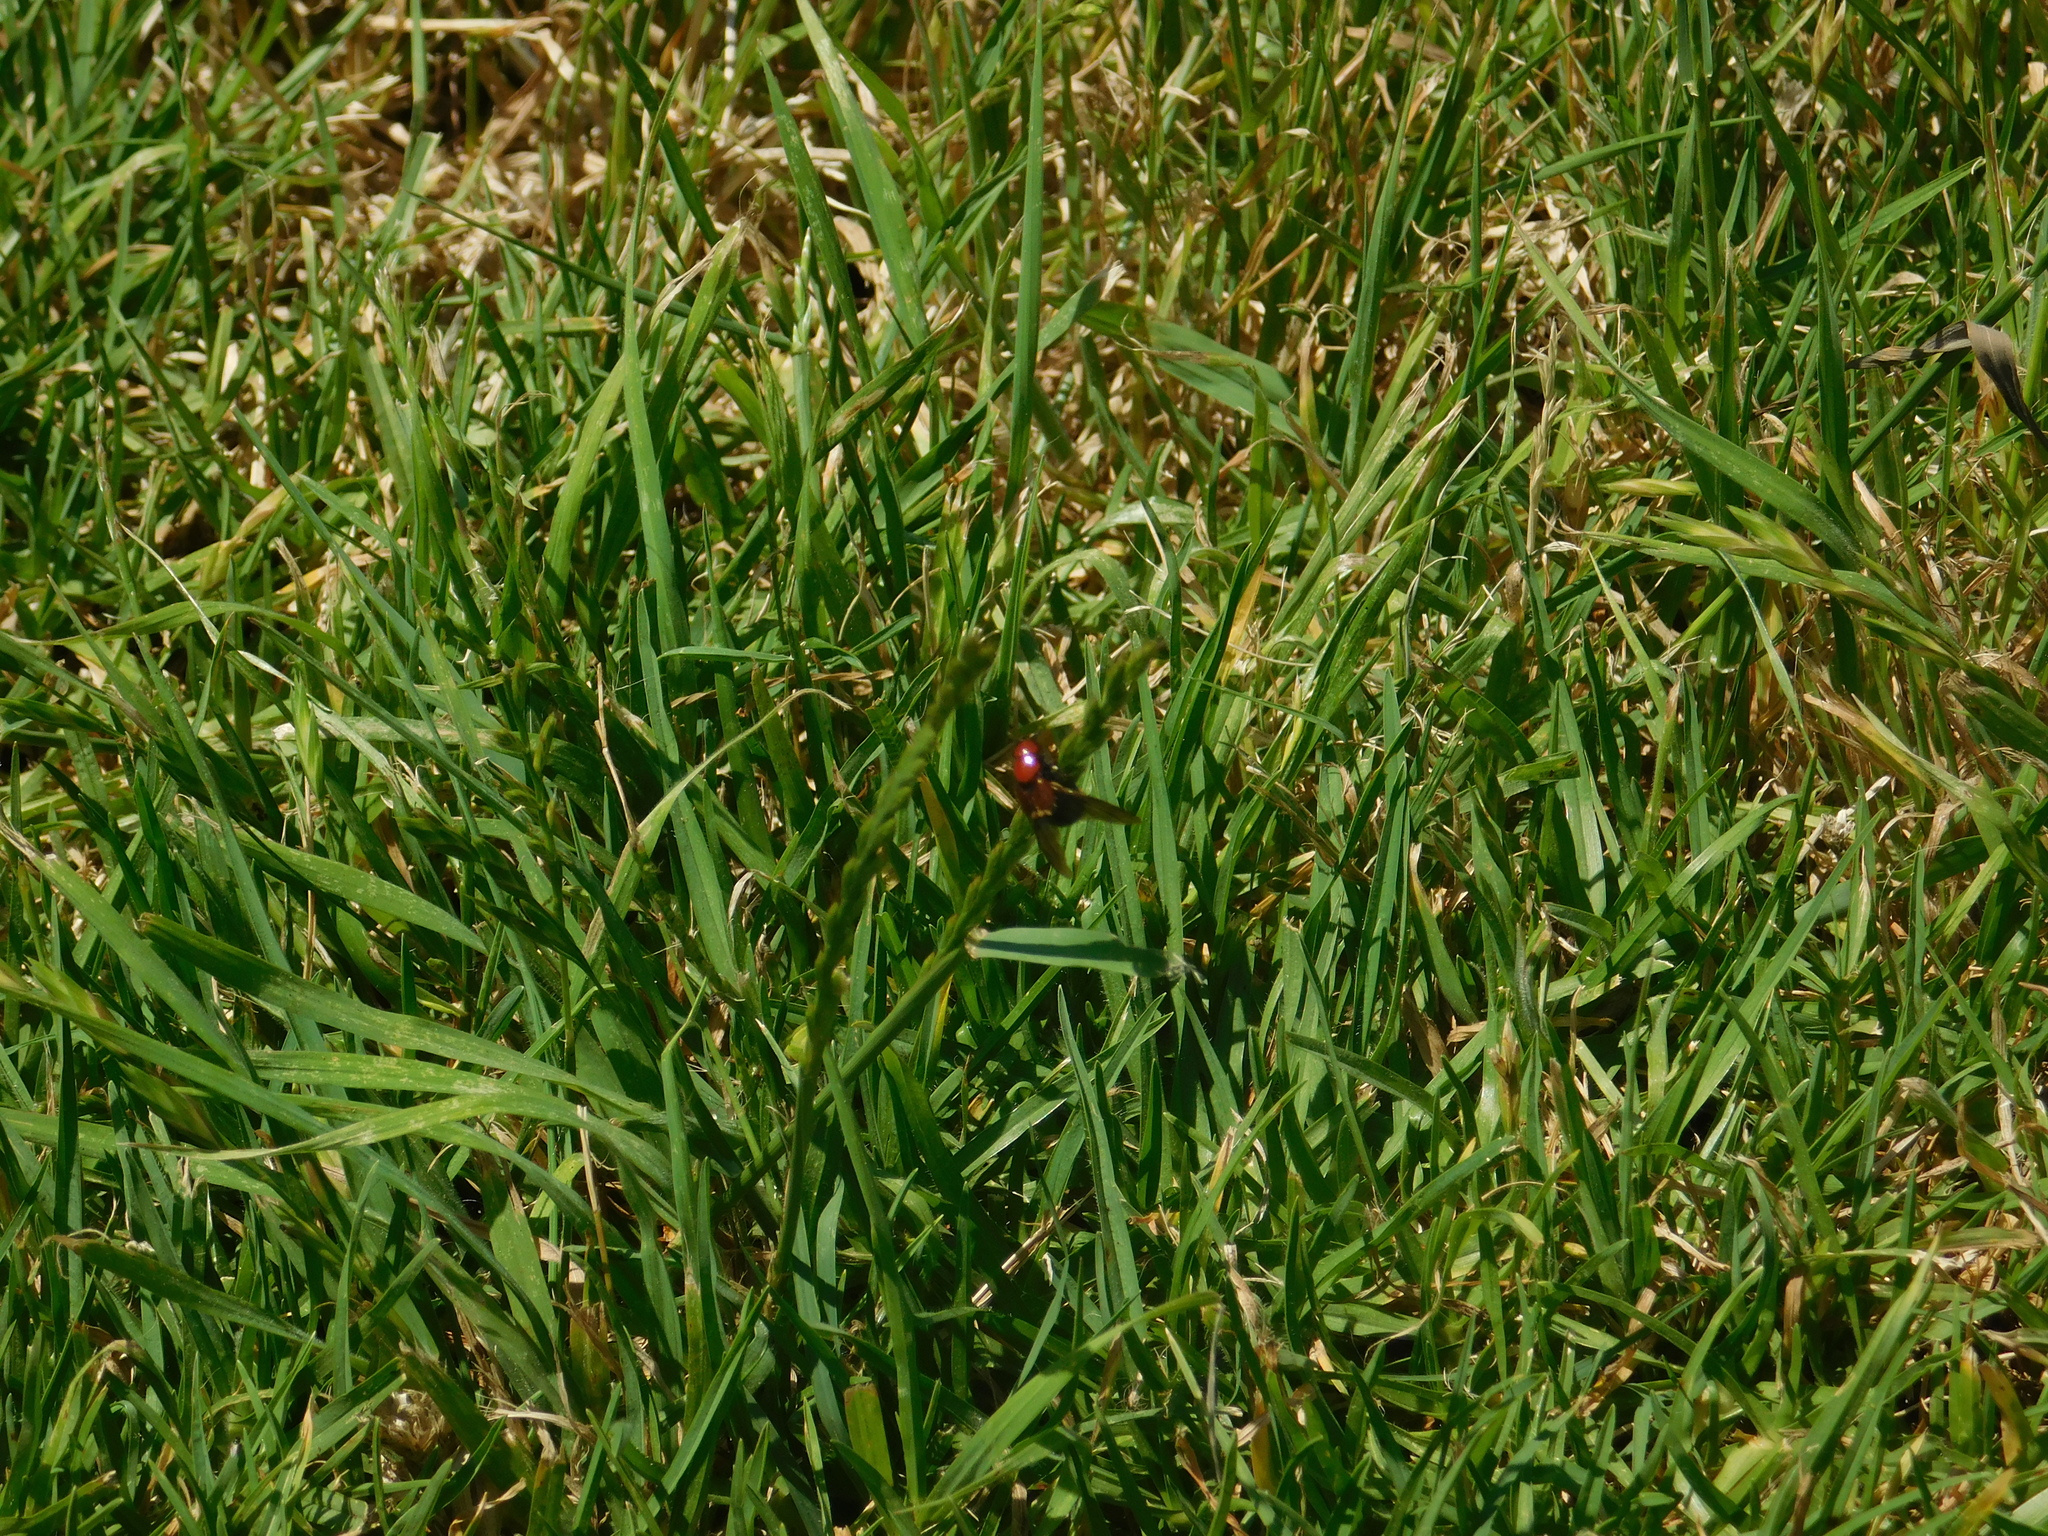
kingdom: Animalia
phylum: Arthropoda
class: Insecta
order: Coleoptera
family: Staphylinidae
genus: Haematodes
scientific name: Haematodes bicolor
